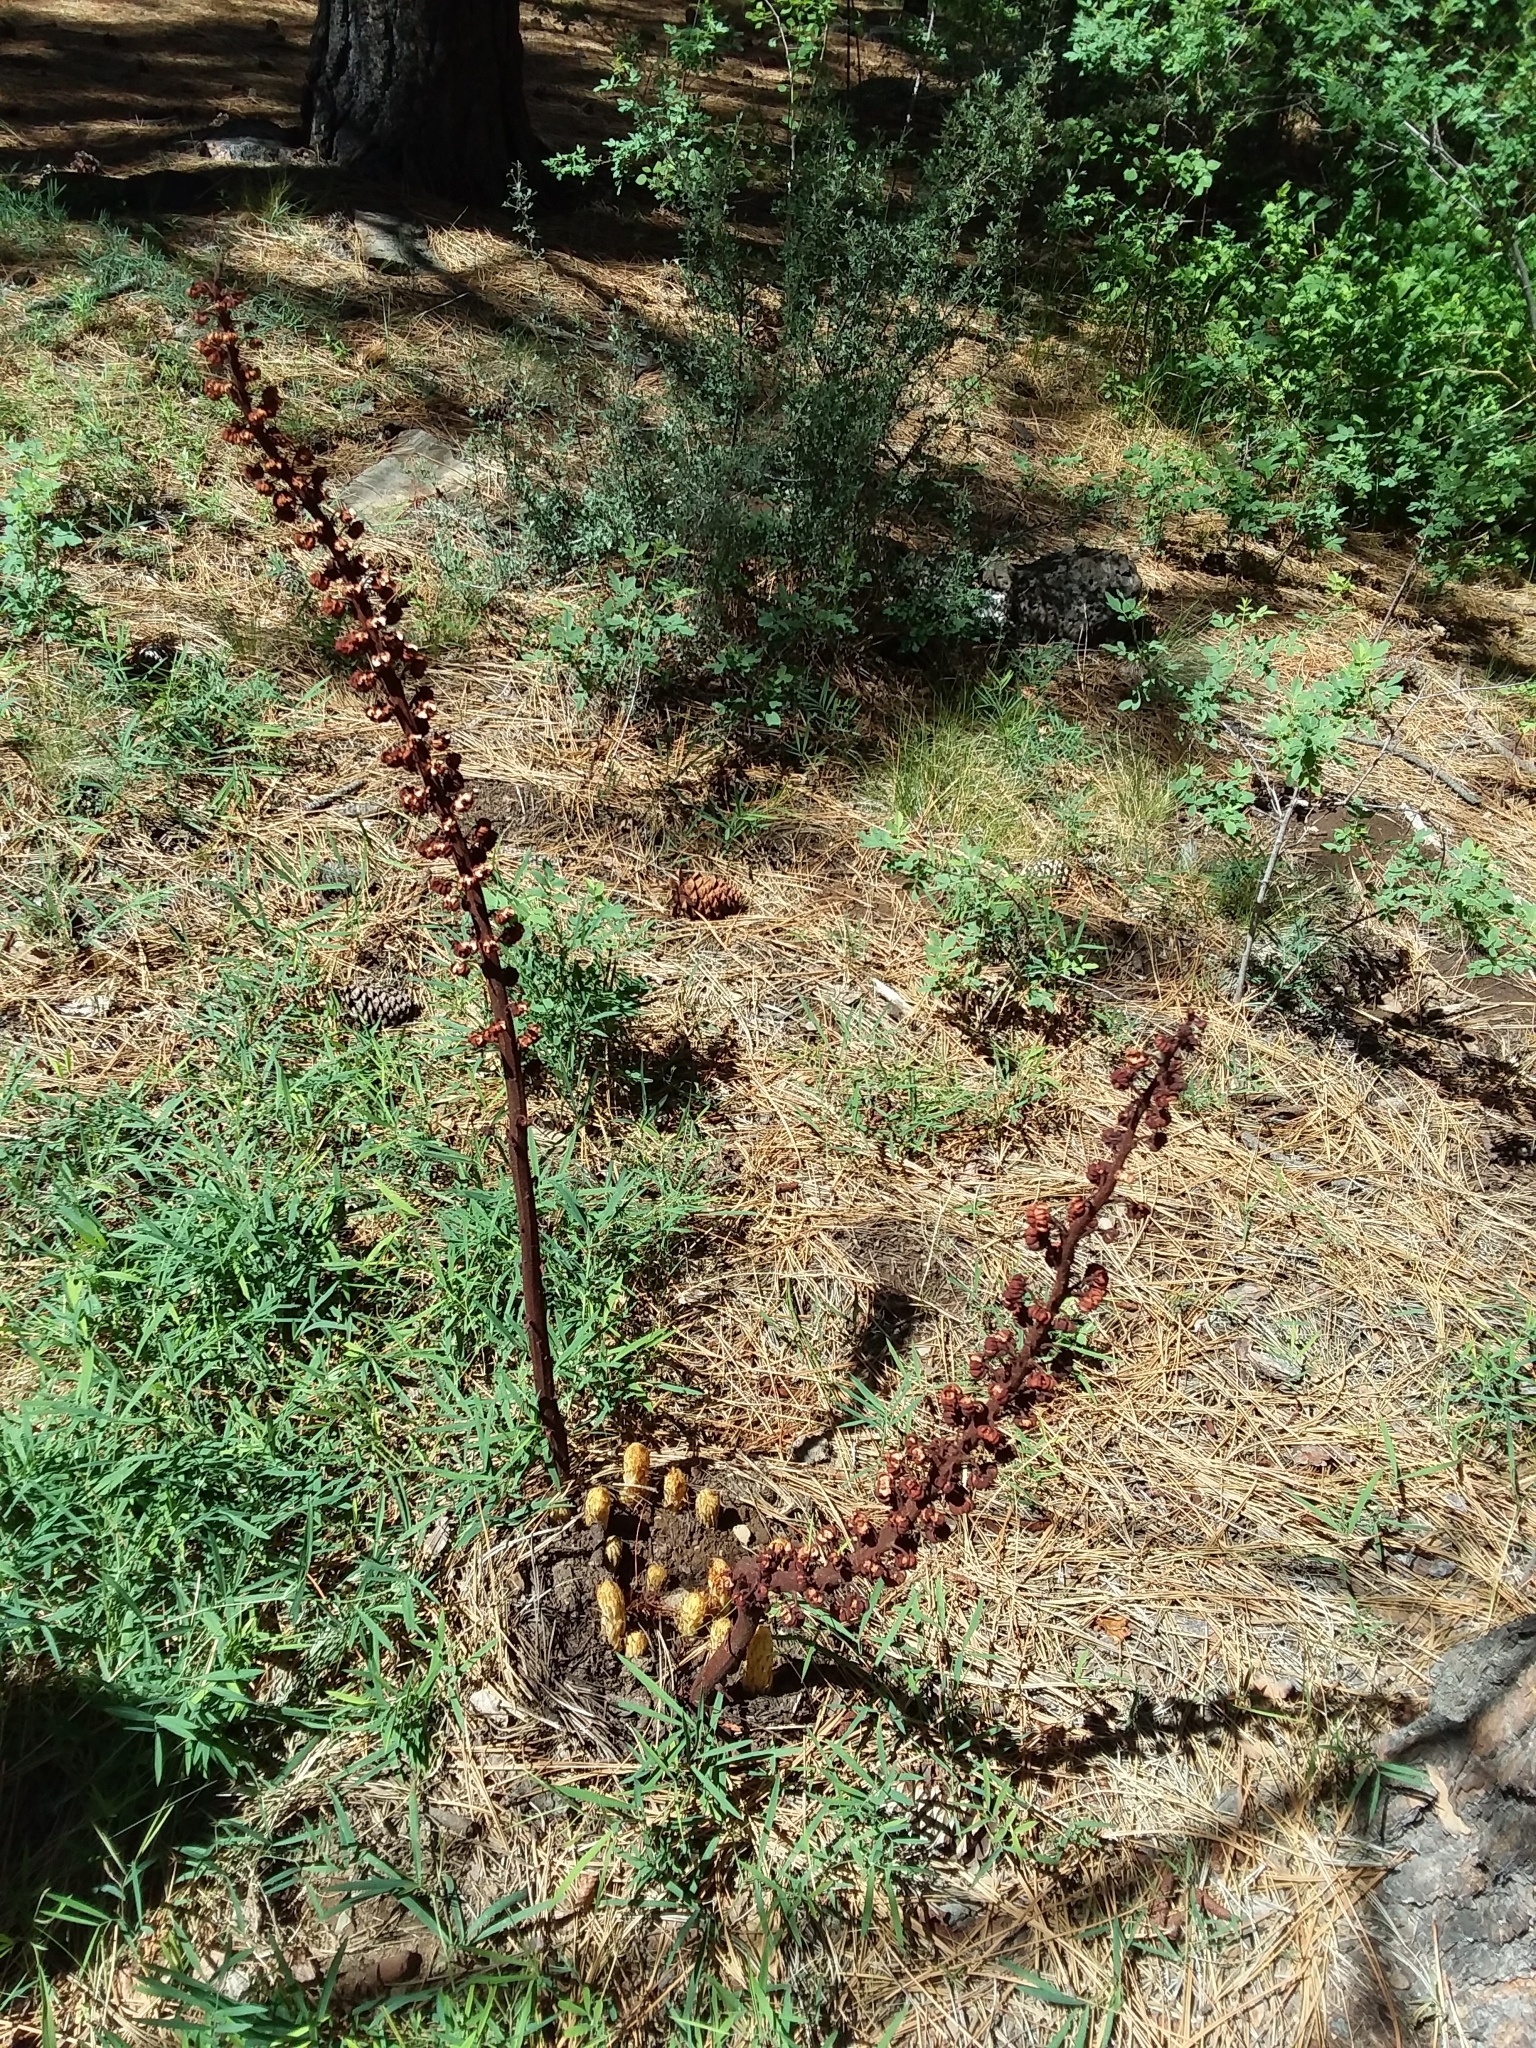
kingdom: Plantae
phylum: Tracheophyta
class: Magnoliopsida
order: Ericales
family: Ericaceae
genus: Pterospora
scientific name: Pterospora andromedea
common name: Giant bird's-nest
